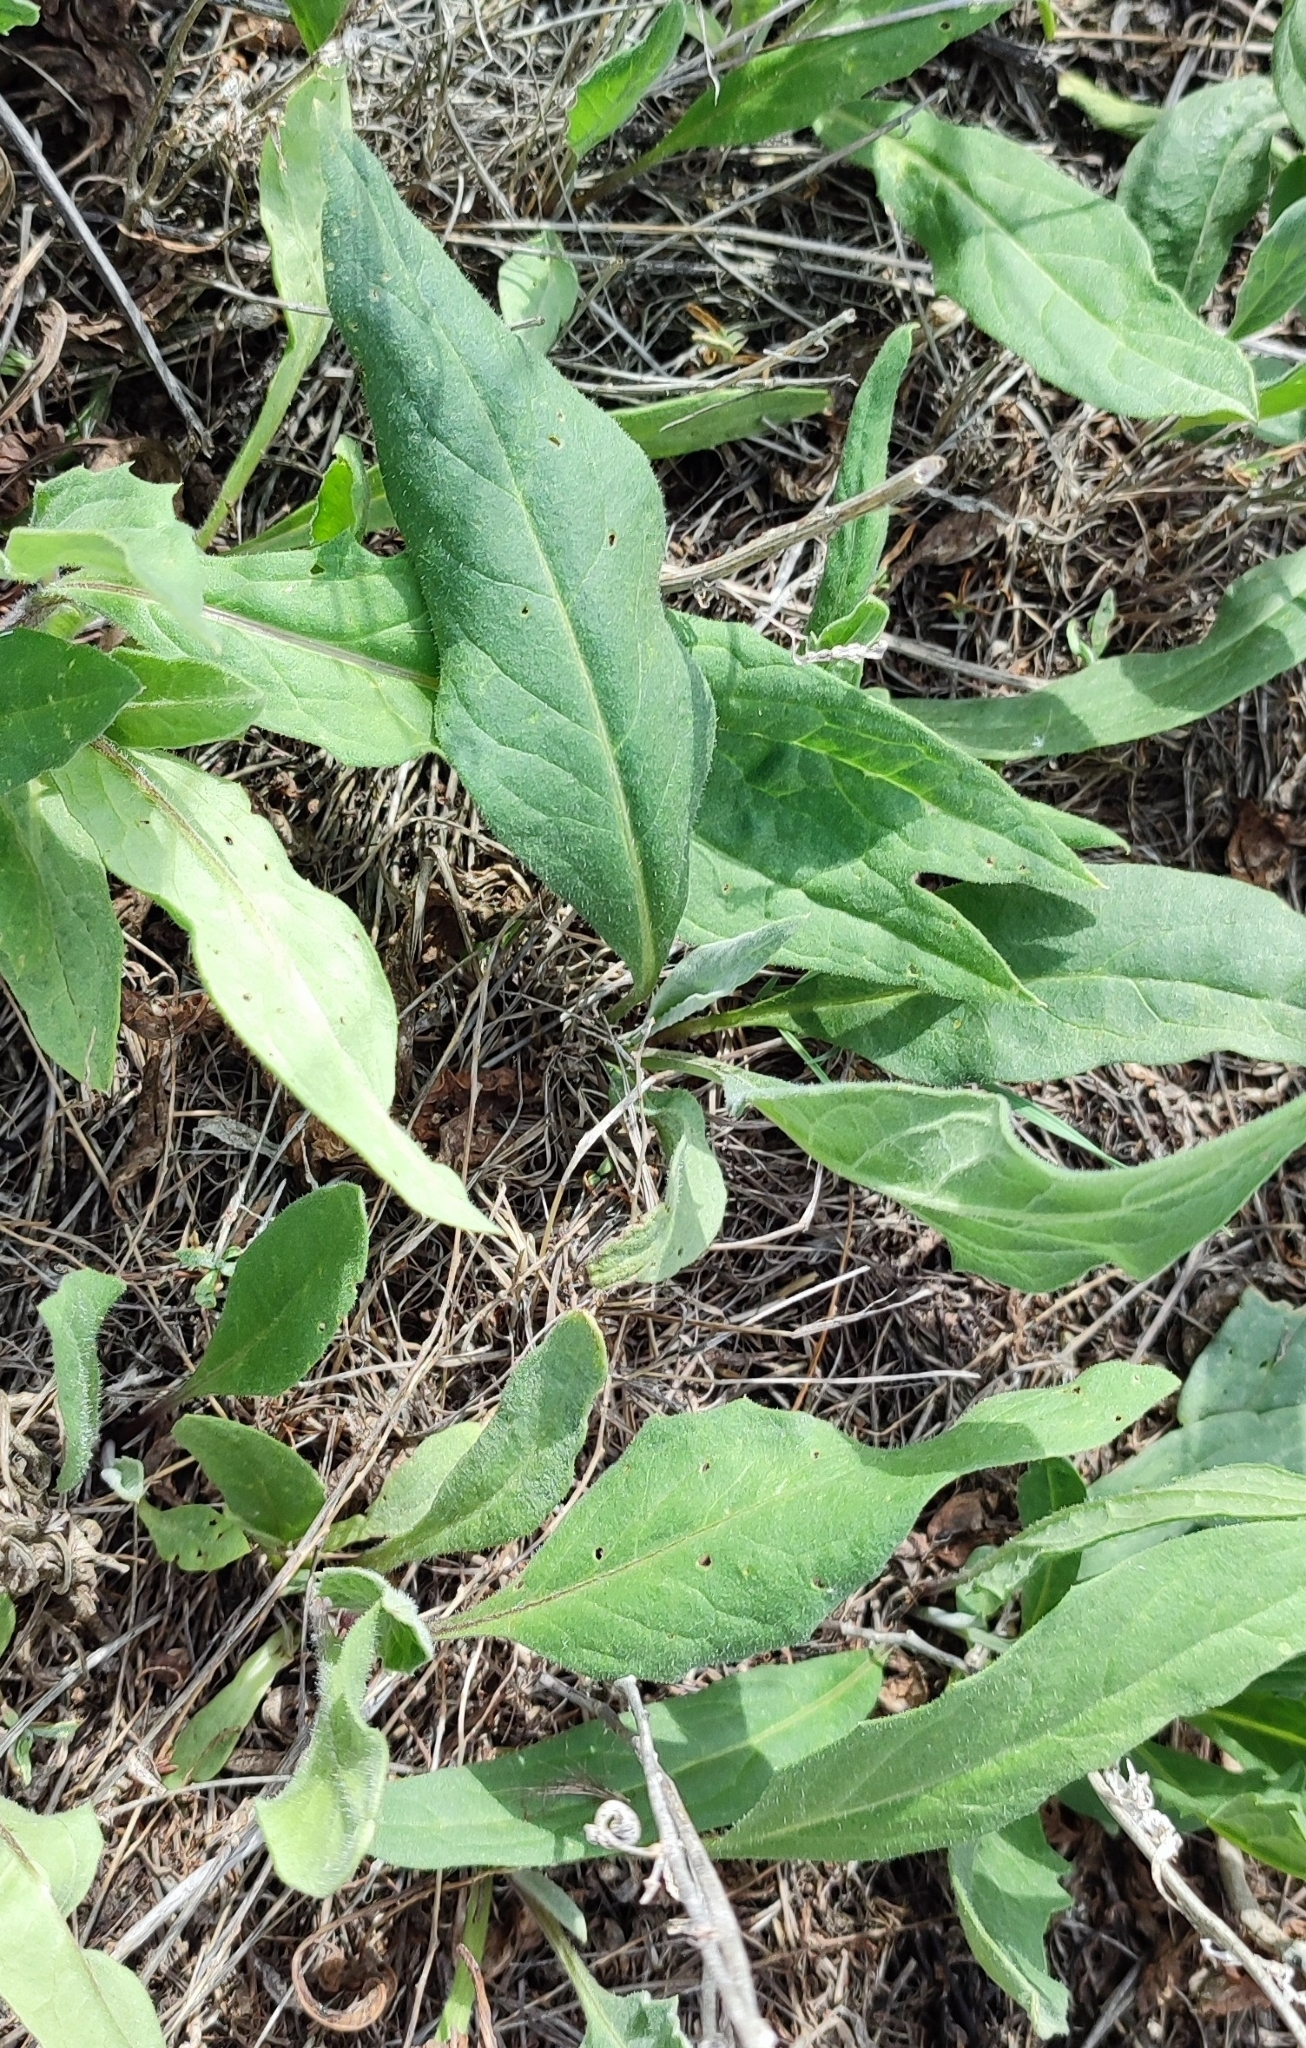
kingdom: Plantae
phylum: Tracheophyta
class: Magnoliopsida
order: Asterales
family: Asteraceae
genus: Saussurea
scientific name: Saussurea amara
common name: Alberta sawwort
